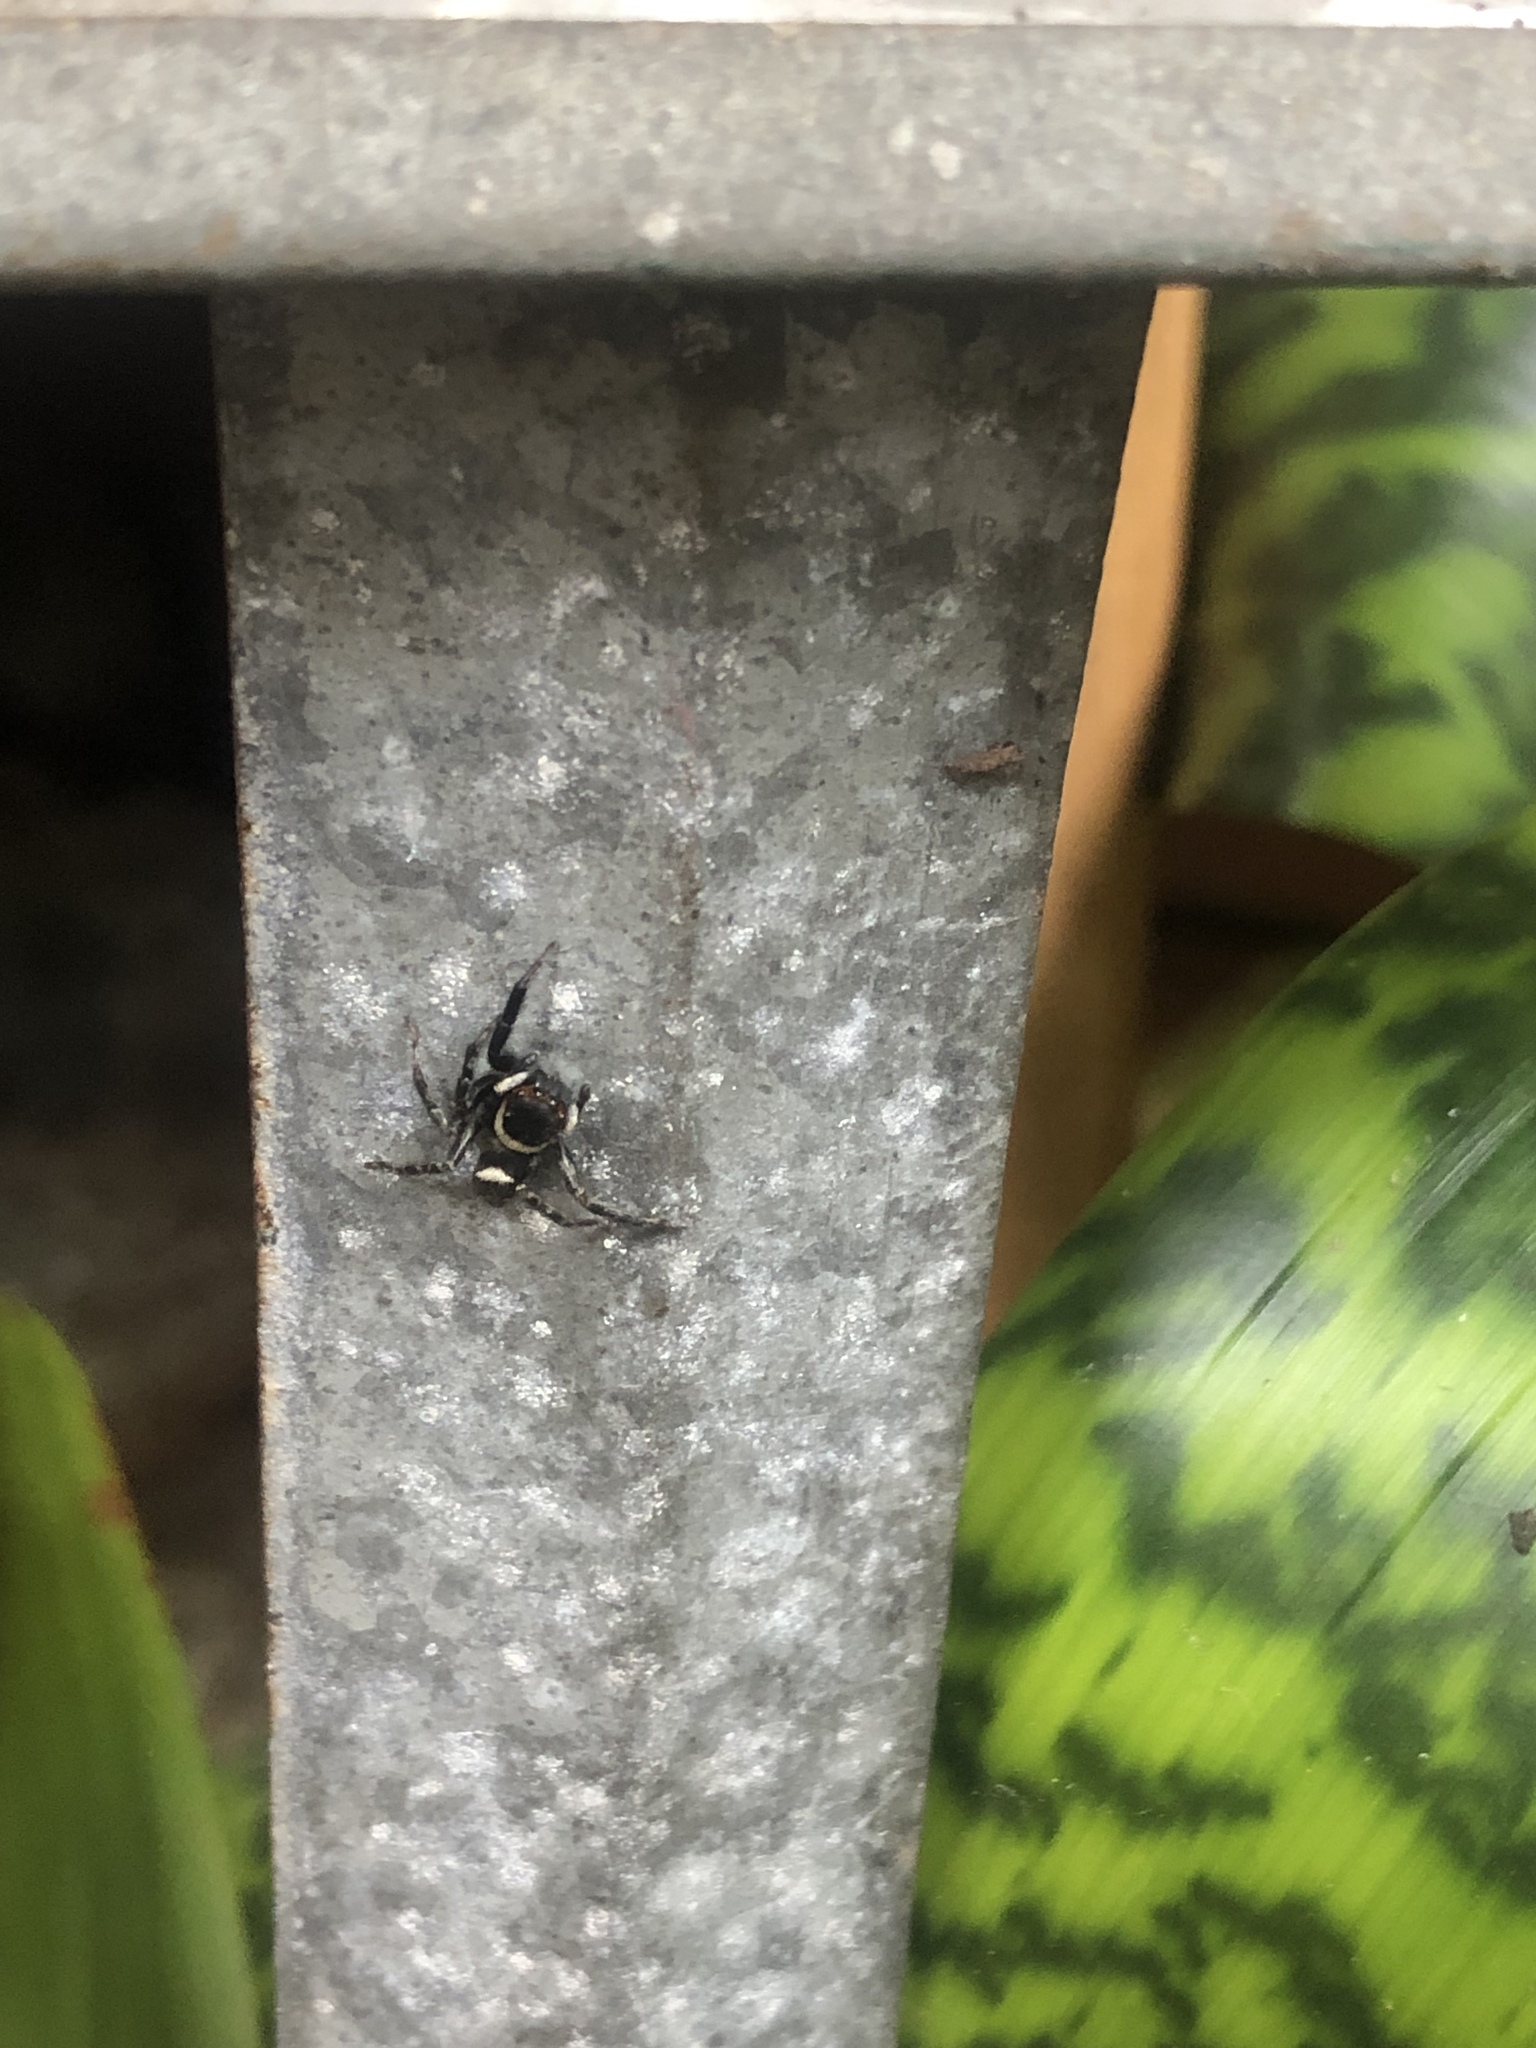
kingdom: Animalia
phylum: Arthropoda
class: Arachnida
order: Araneae
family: Salticidae
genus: Hasarius
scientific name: Hasarius adansoni
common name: Jumping spider
